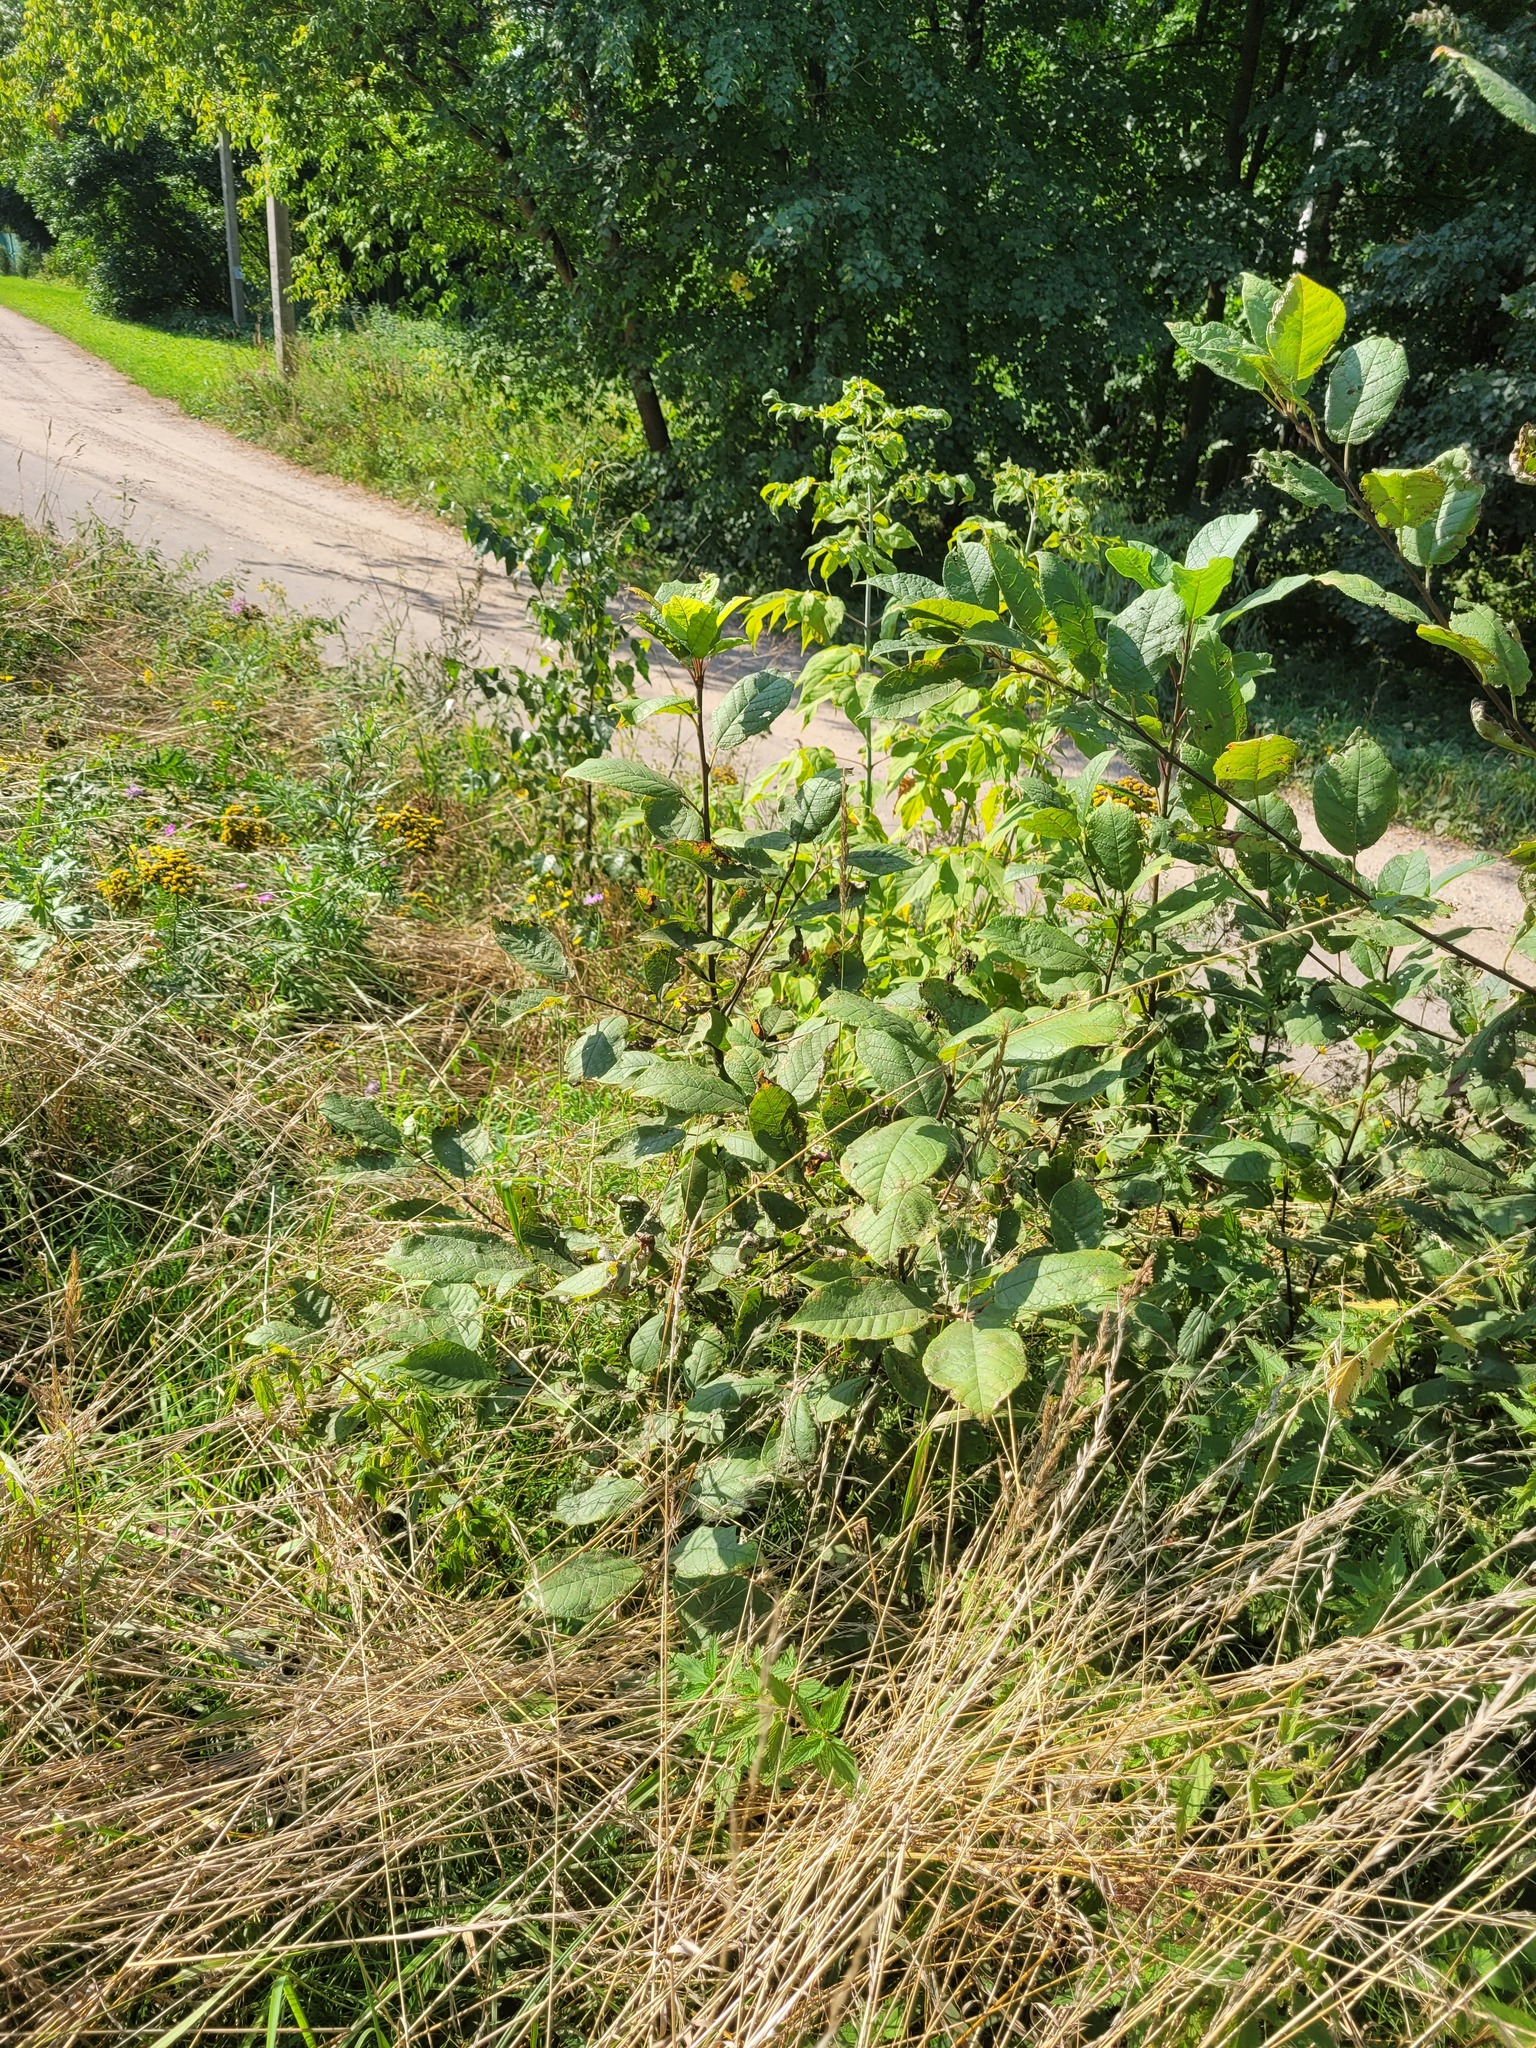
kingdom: Plantae
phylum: Tracheophyta
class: Magnoliopsida
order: Rosales
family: Rosaceae
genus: Prunus
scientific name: Prunus padus
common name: Bird cherry
